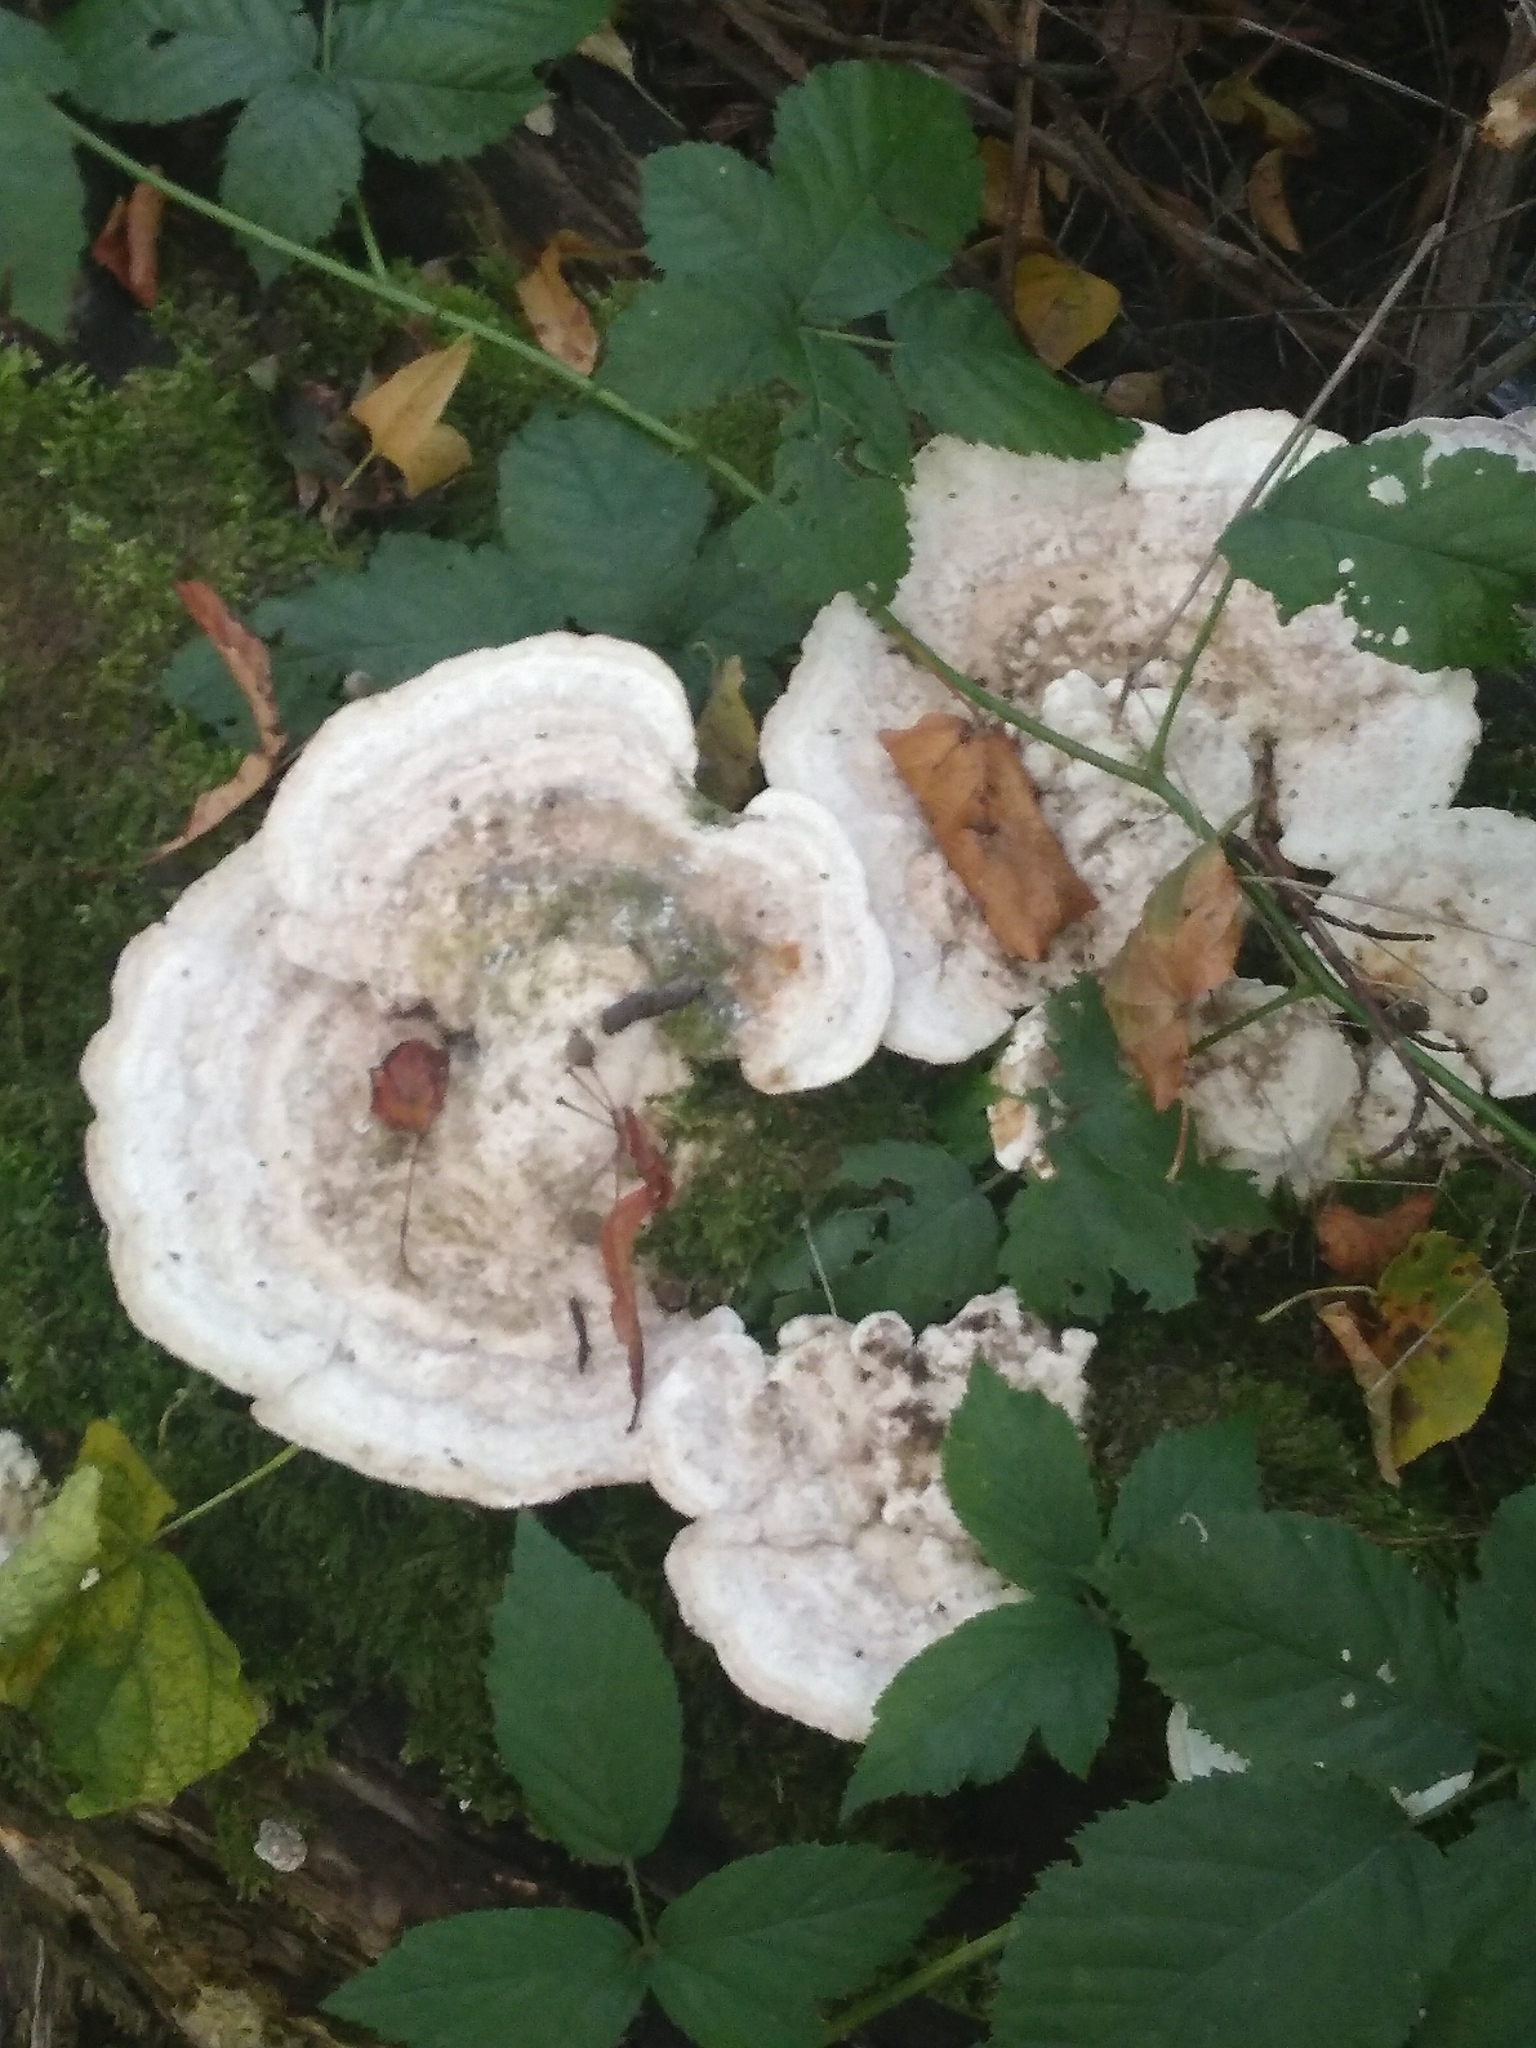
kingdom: Fungi
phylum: Basidiomycota
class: Agaricomycetes
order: Polyporales
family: Polyporaceae
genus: Trametes
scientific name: Trametes gibbosa
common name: Lumpy bracket
